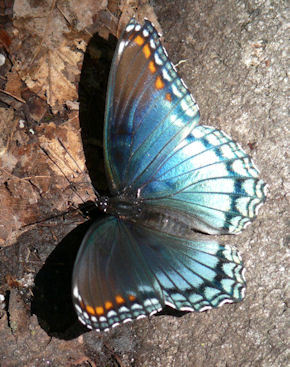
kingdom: Animalia
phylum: Arthropoda
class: Insecta
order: Lepidoptera
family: Nymphalidae
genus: Limenitis
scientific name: Limenitis astyanax
